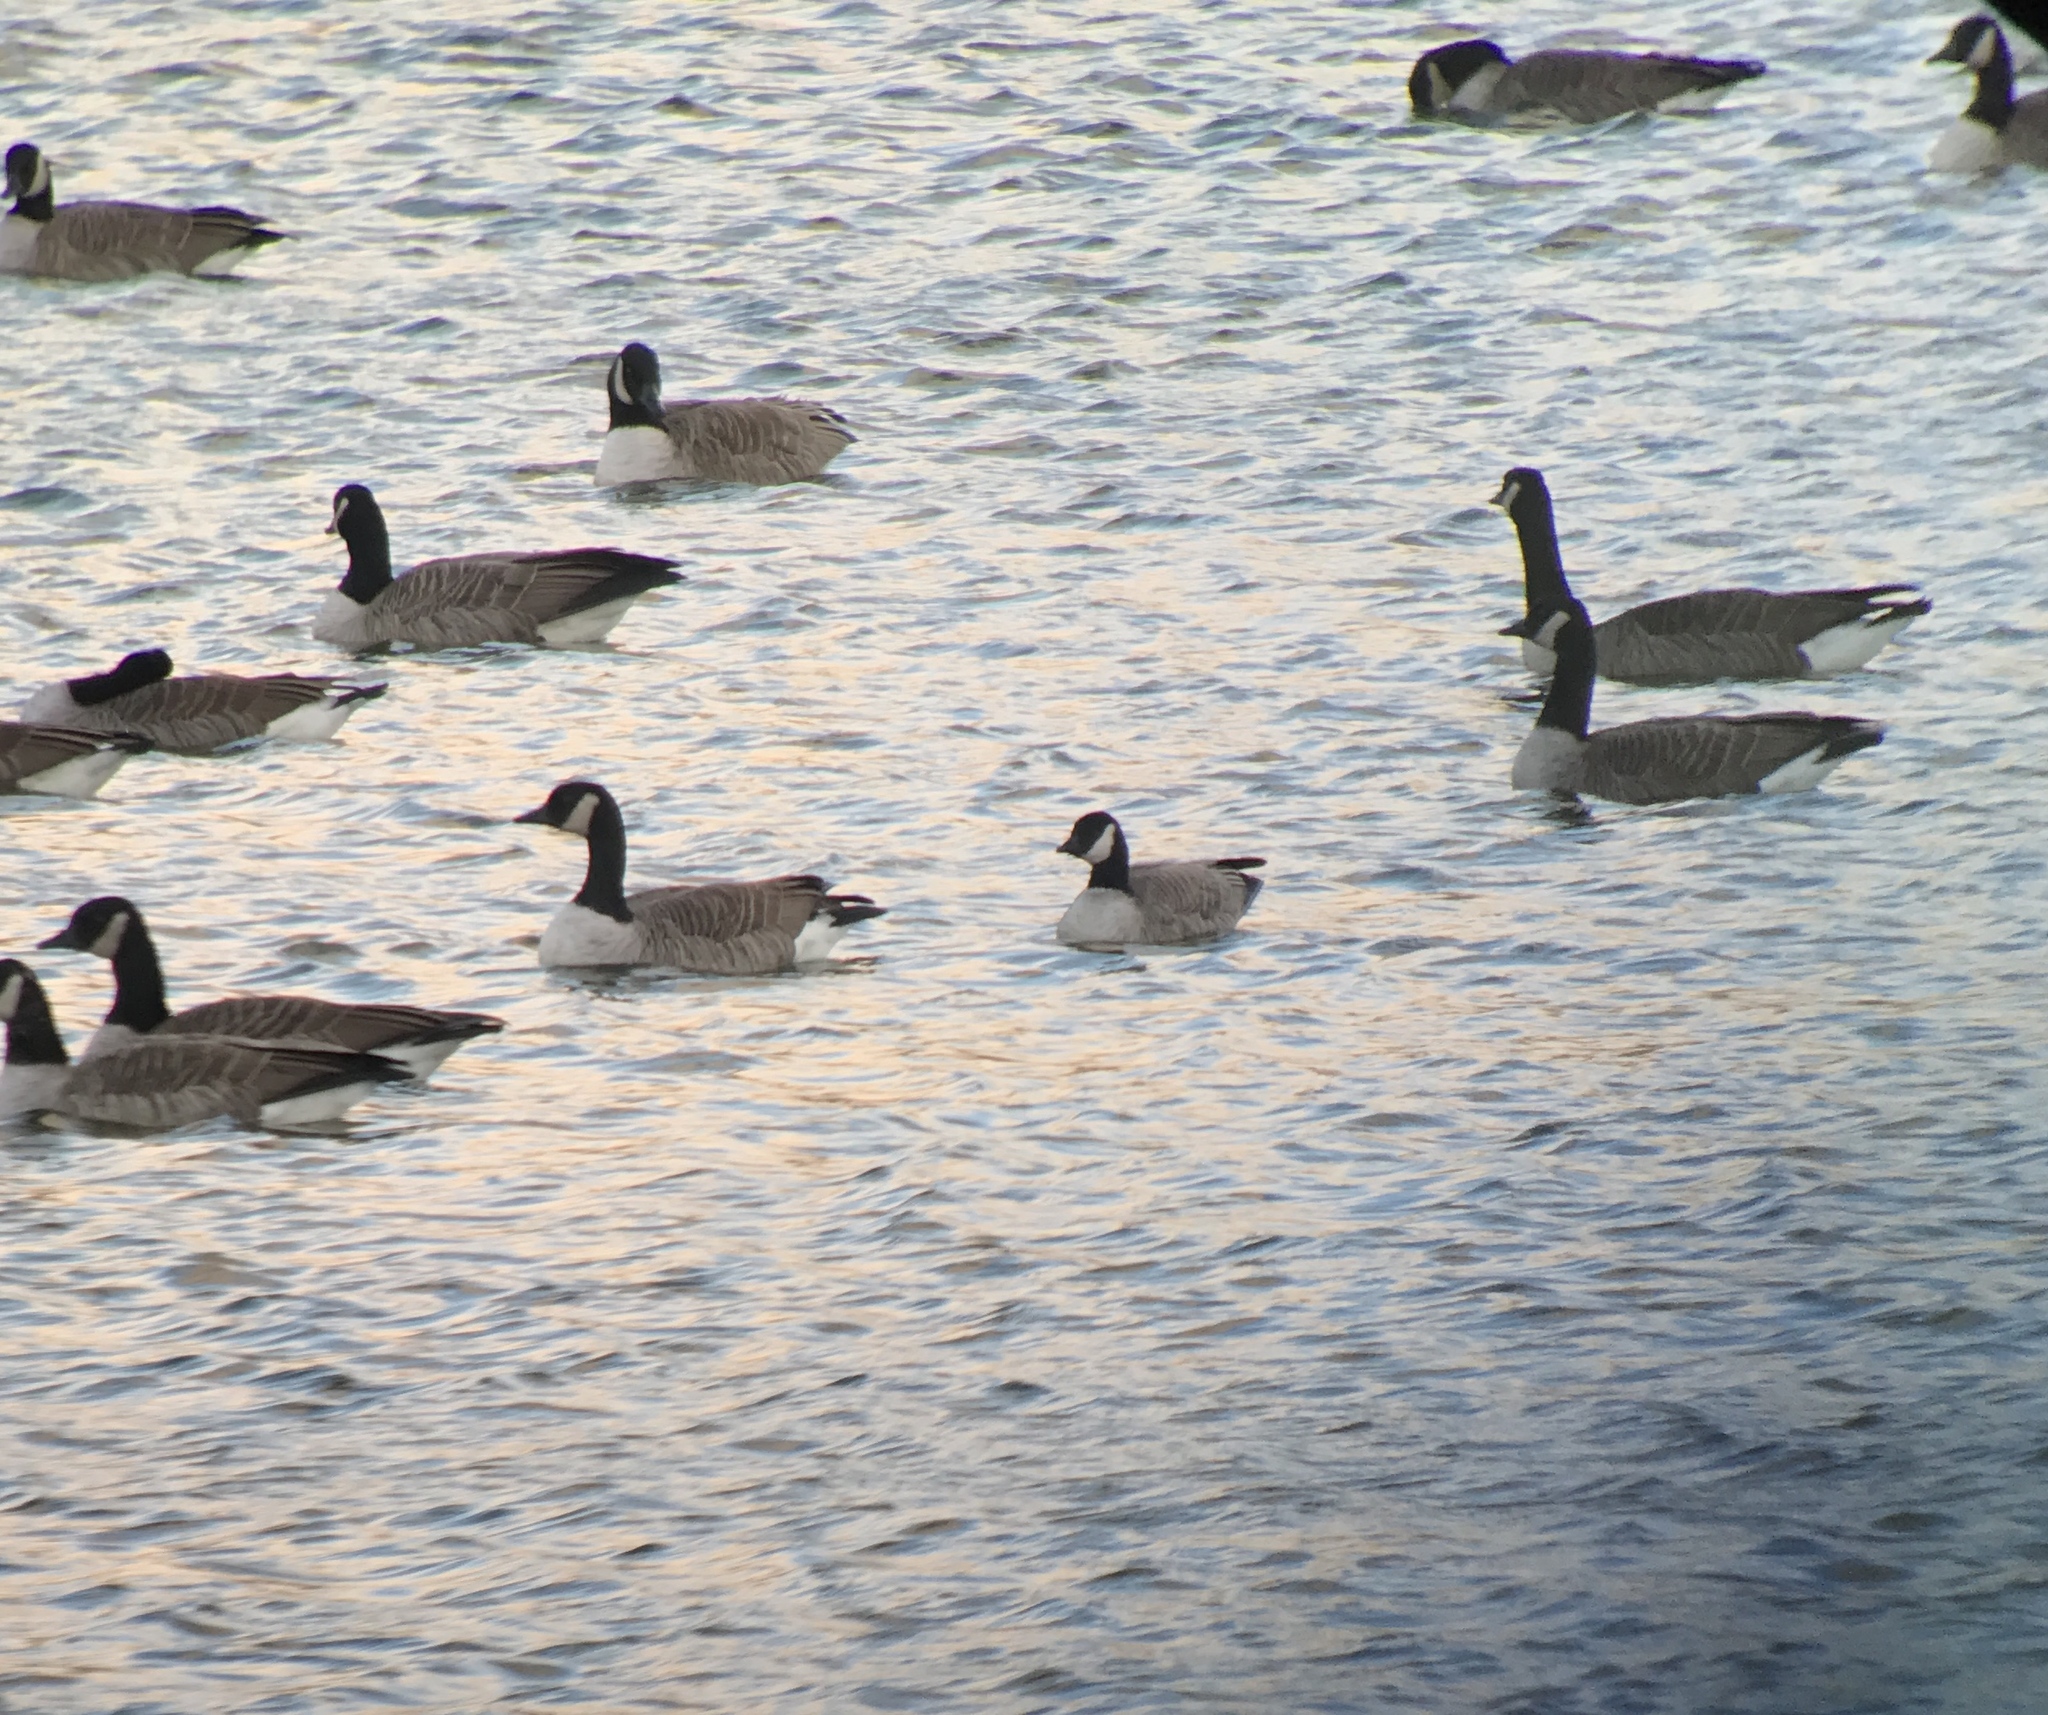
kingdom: Animalia
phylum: Chordata
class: Aves
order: Anseriformes
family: Anatidae
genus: Branta
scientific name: Branta hutchinsii
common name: Cackling goose
